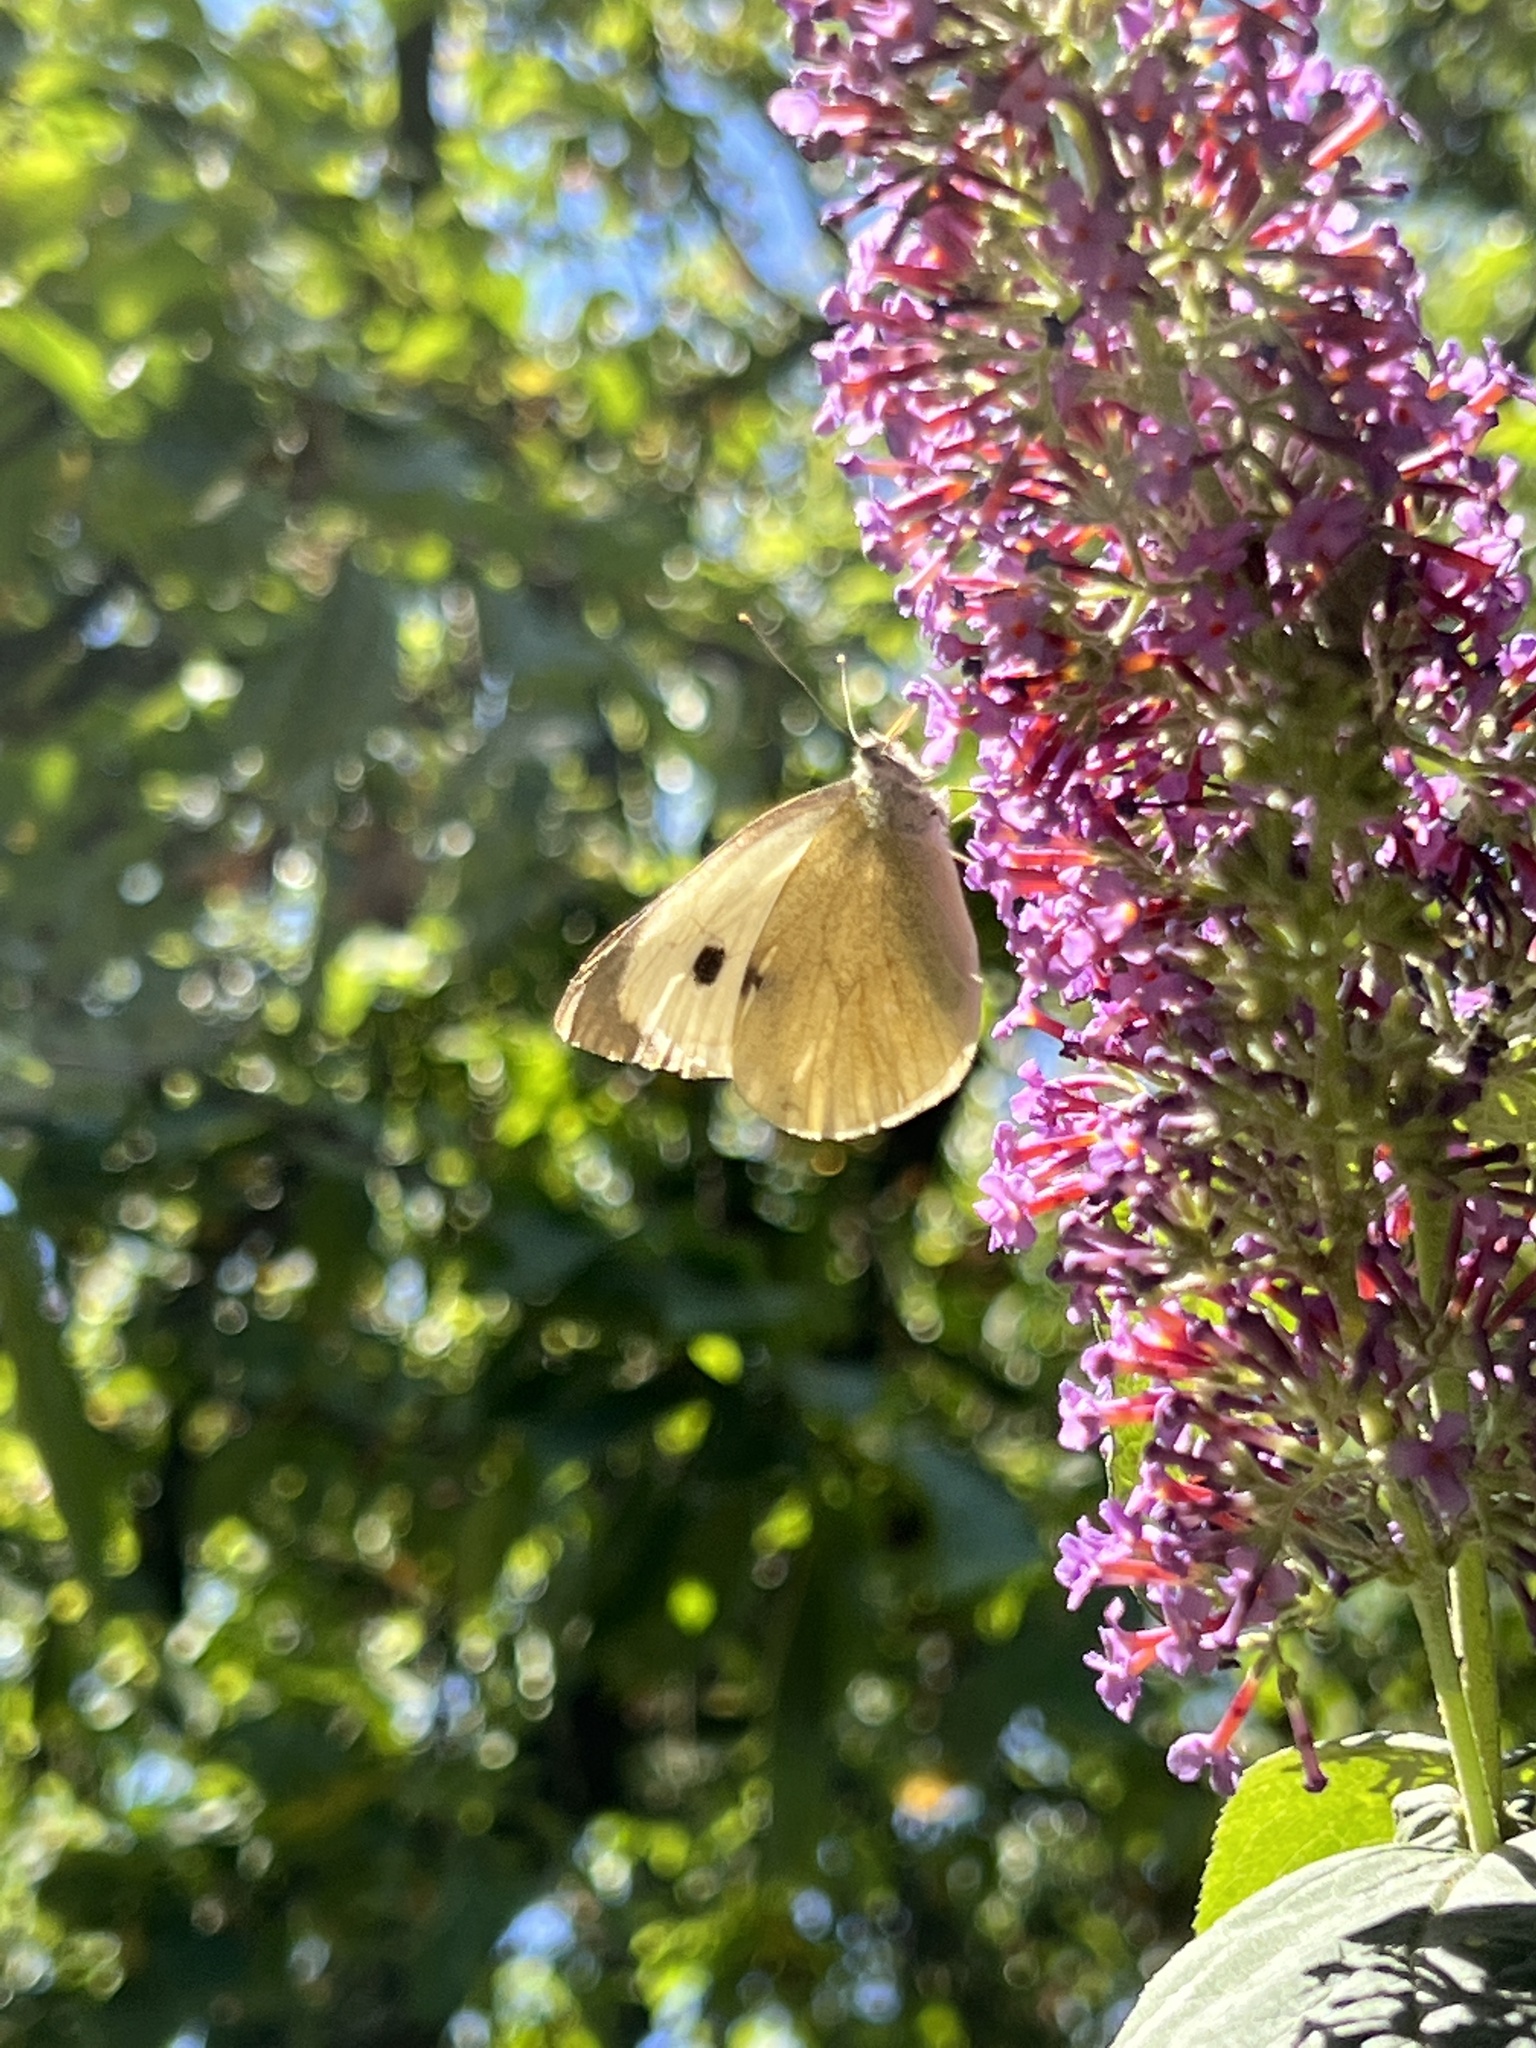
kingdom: Animalia
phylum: Arthropoda
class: Insecta
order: Lepidoptera
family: Pieridae
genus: Pieris
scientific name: Pieris brassicae
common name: Large white
